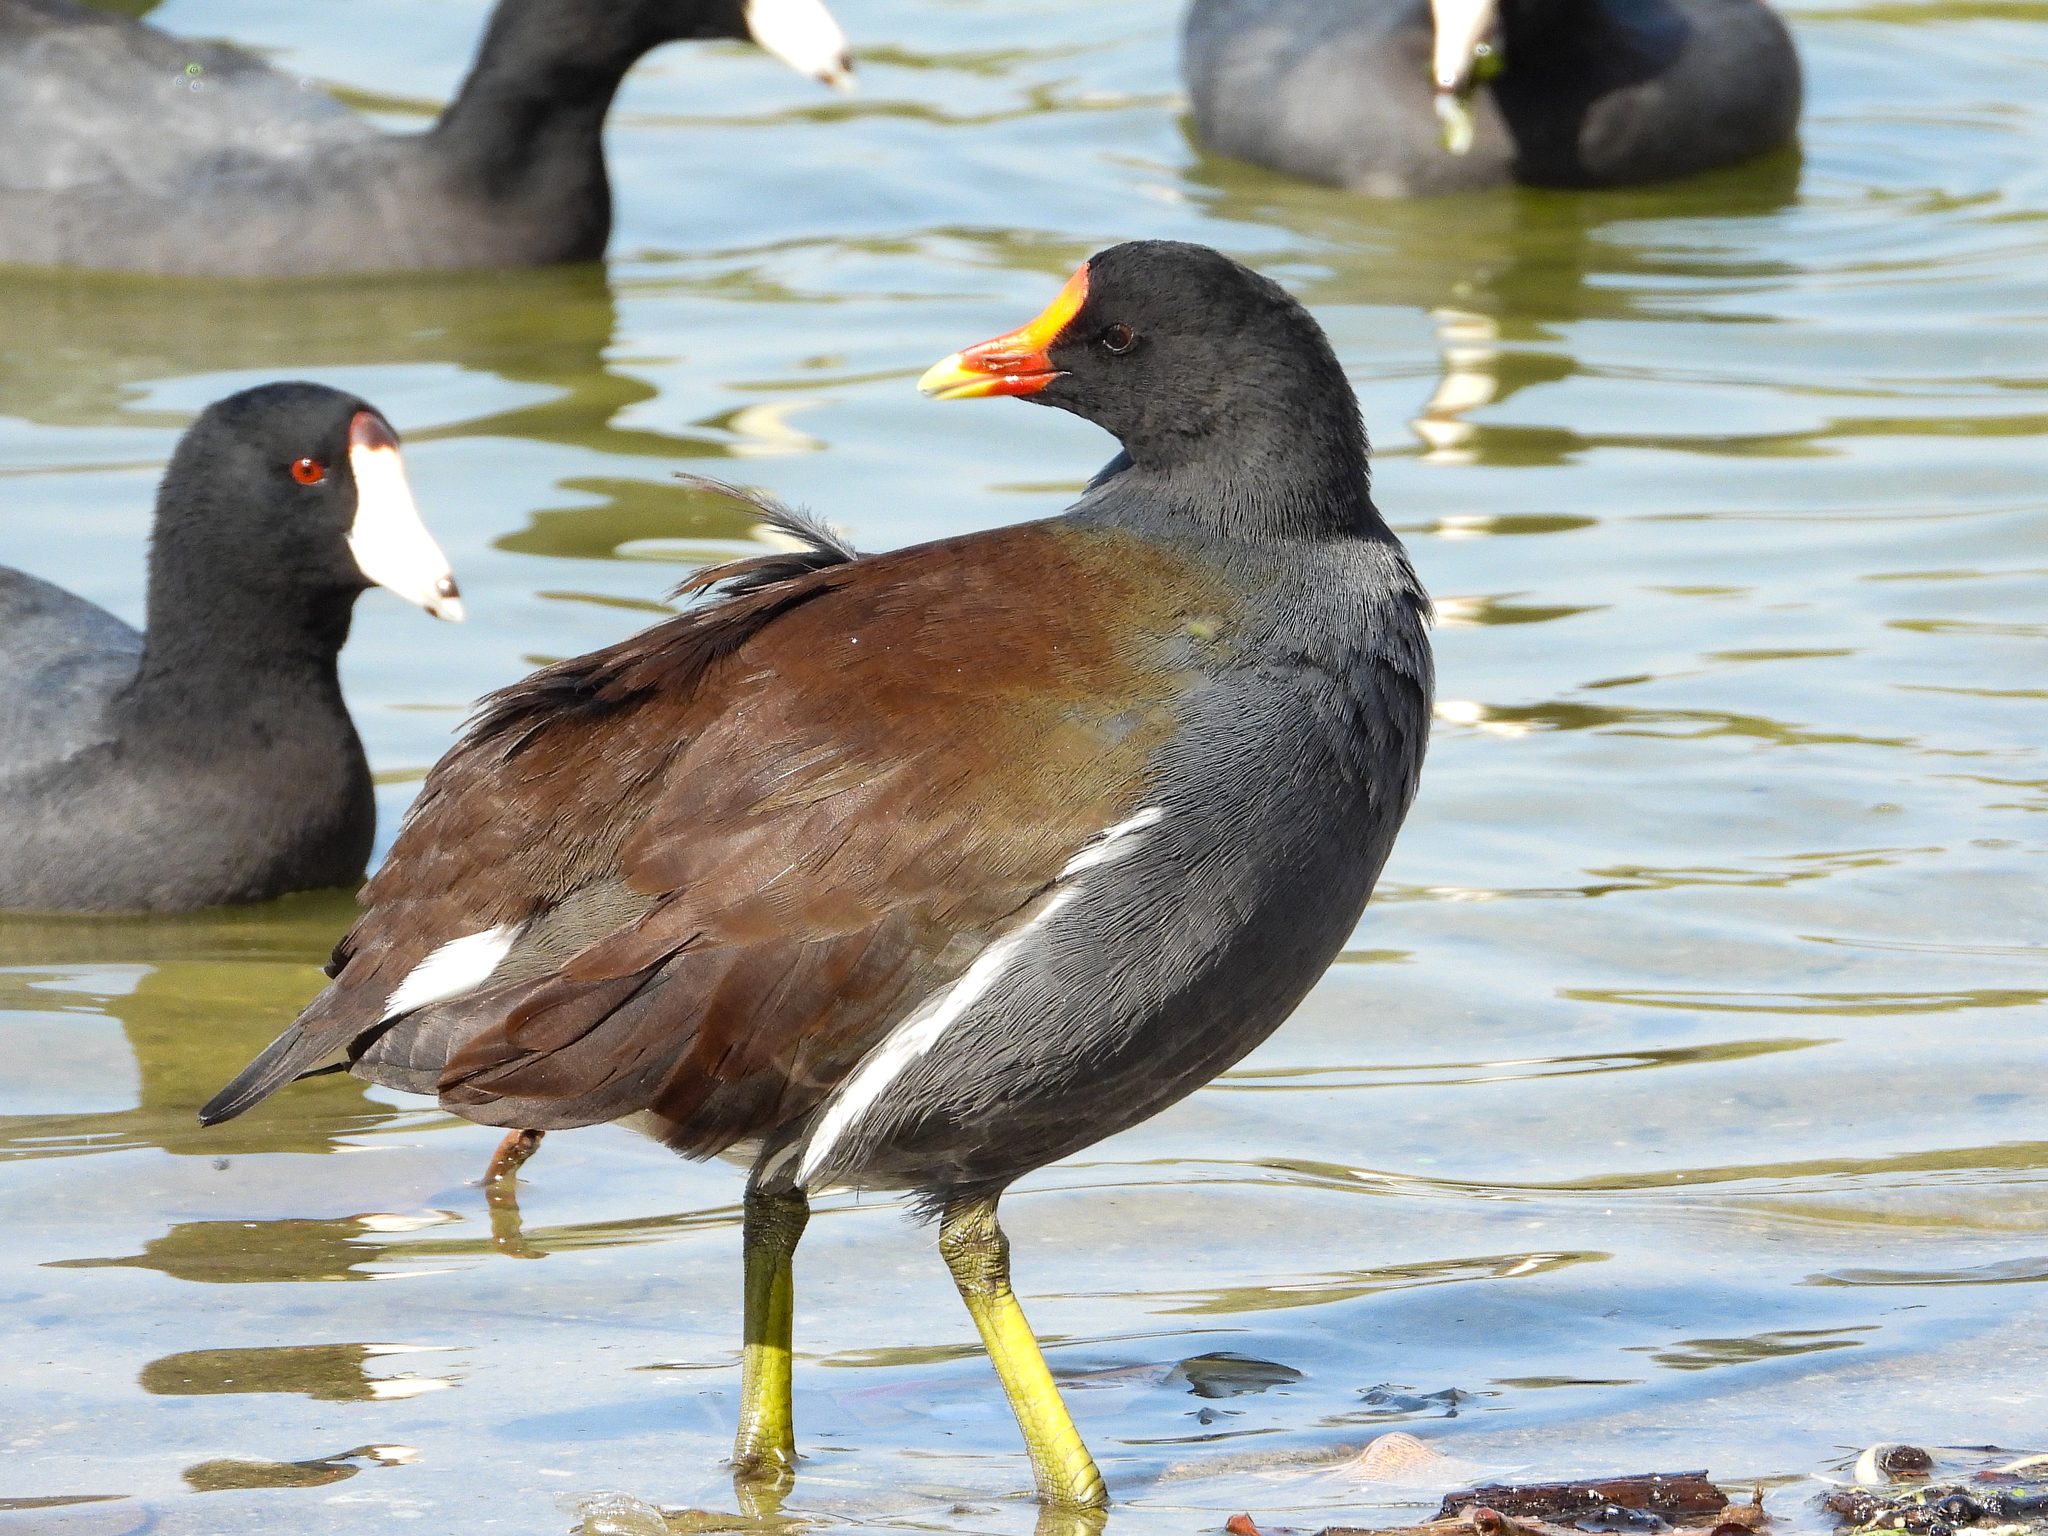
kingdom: Animalia
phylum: Chordata
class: Aves
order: Gruiformes
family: Rallidae
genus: Gallinula
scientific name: Gallinula chloropus
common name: Common moorhen
